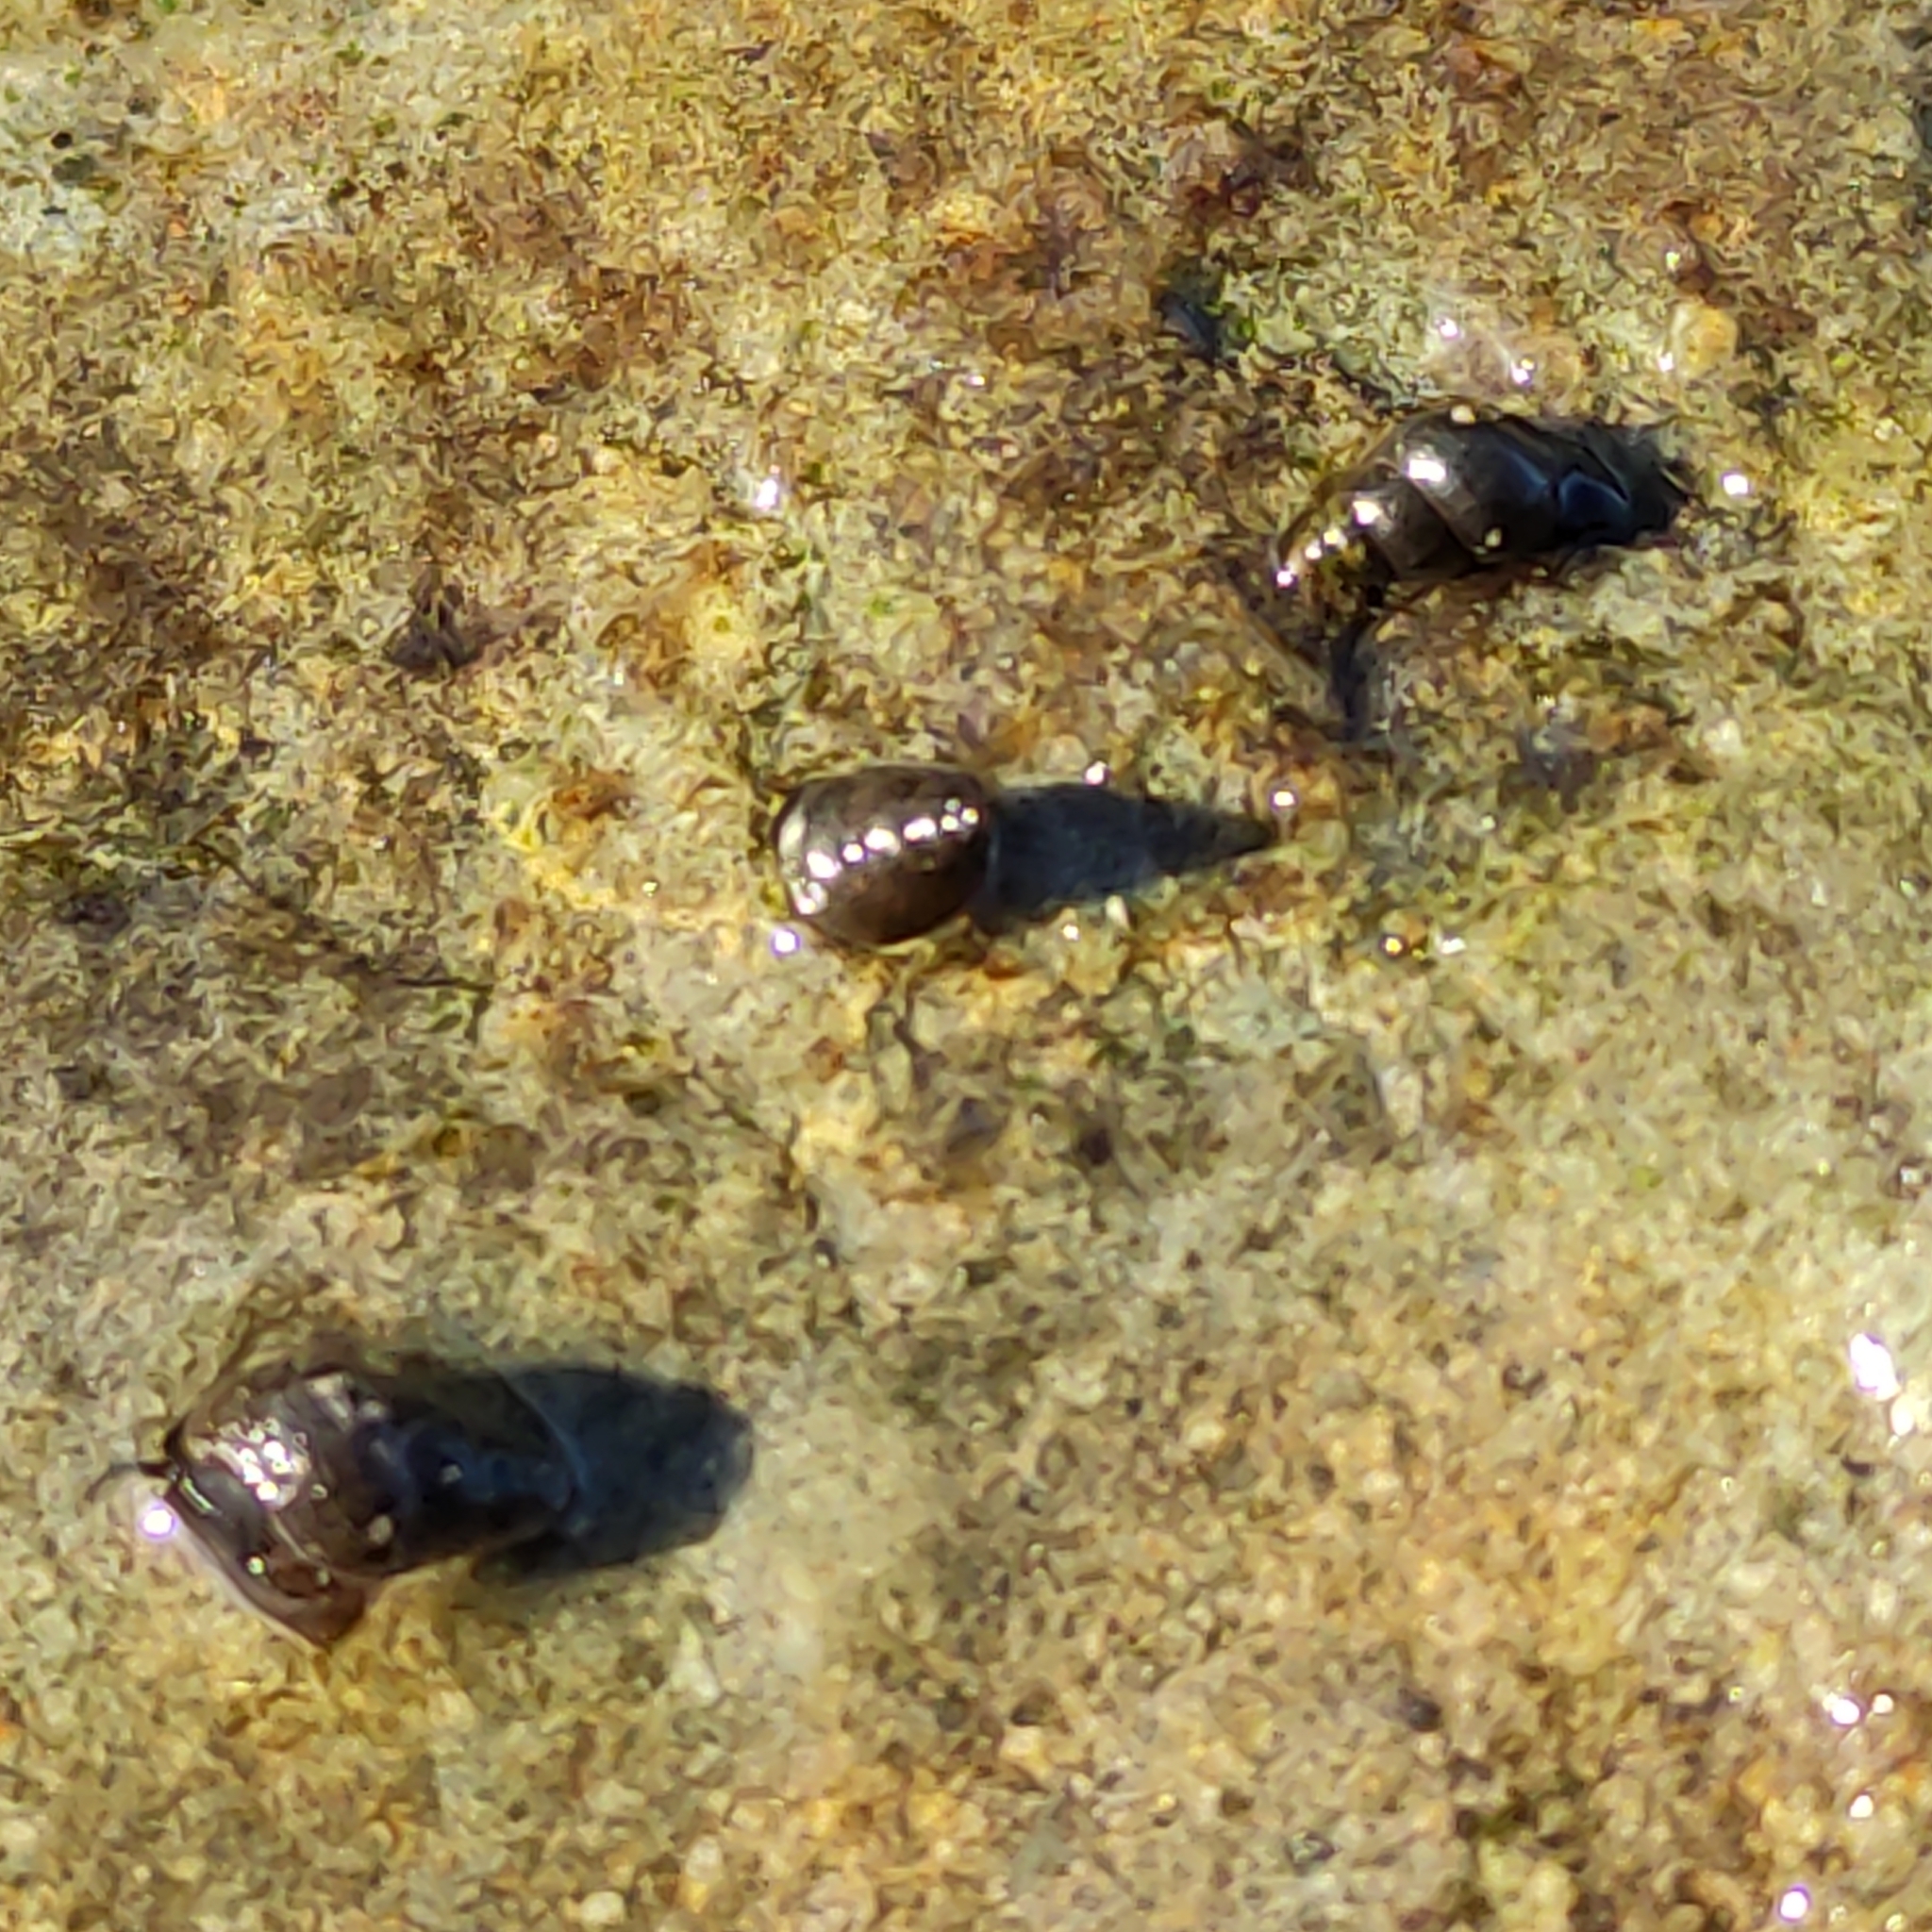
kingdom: Animalia
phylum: Mollusca
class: Gastropoda
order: Littorinimorpha
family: Tateidae
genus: Potamopyrgus
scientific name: Potamopyrgus antipodarum
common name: Jenkins' spire snail
